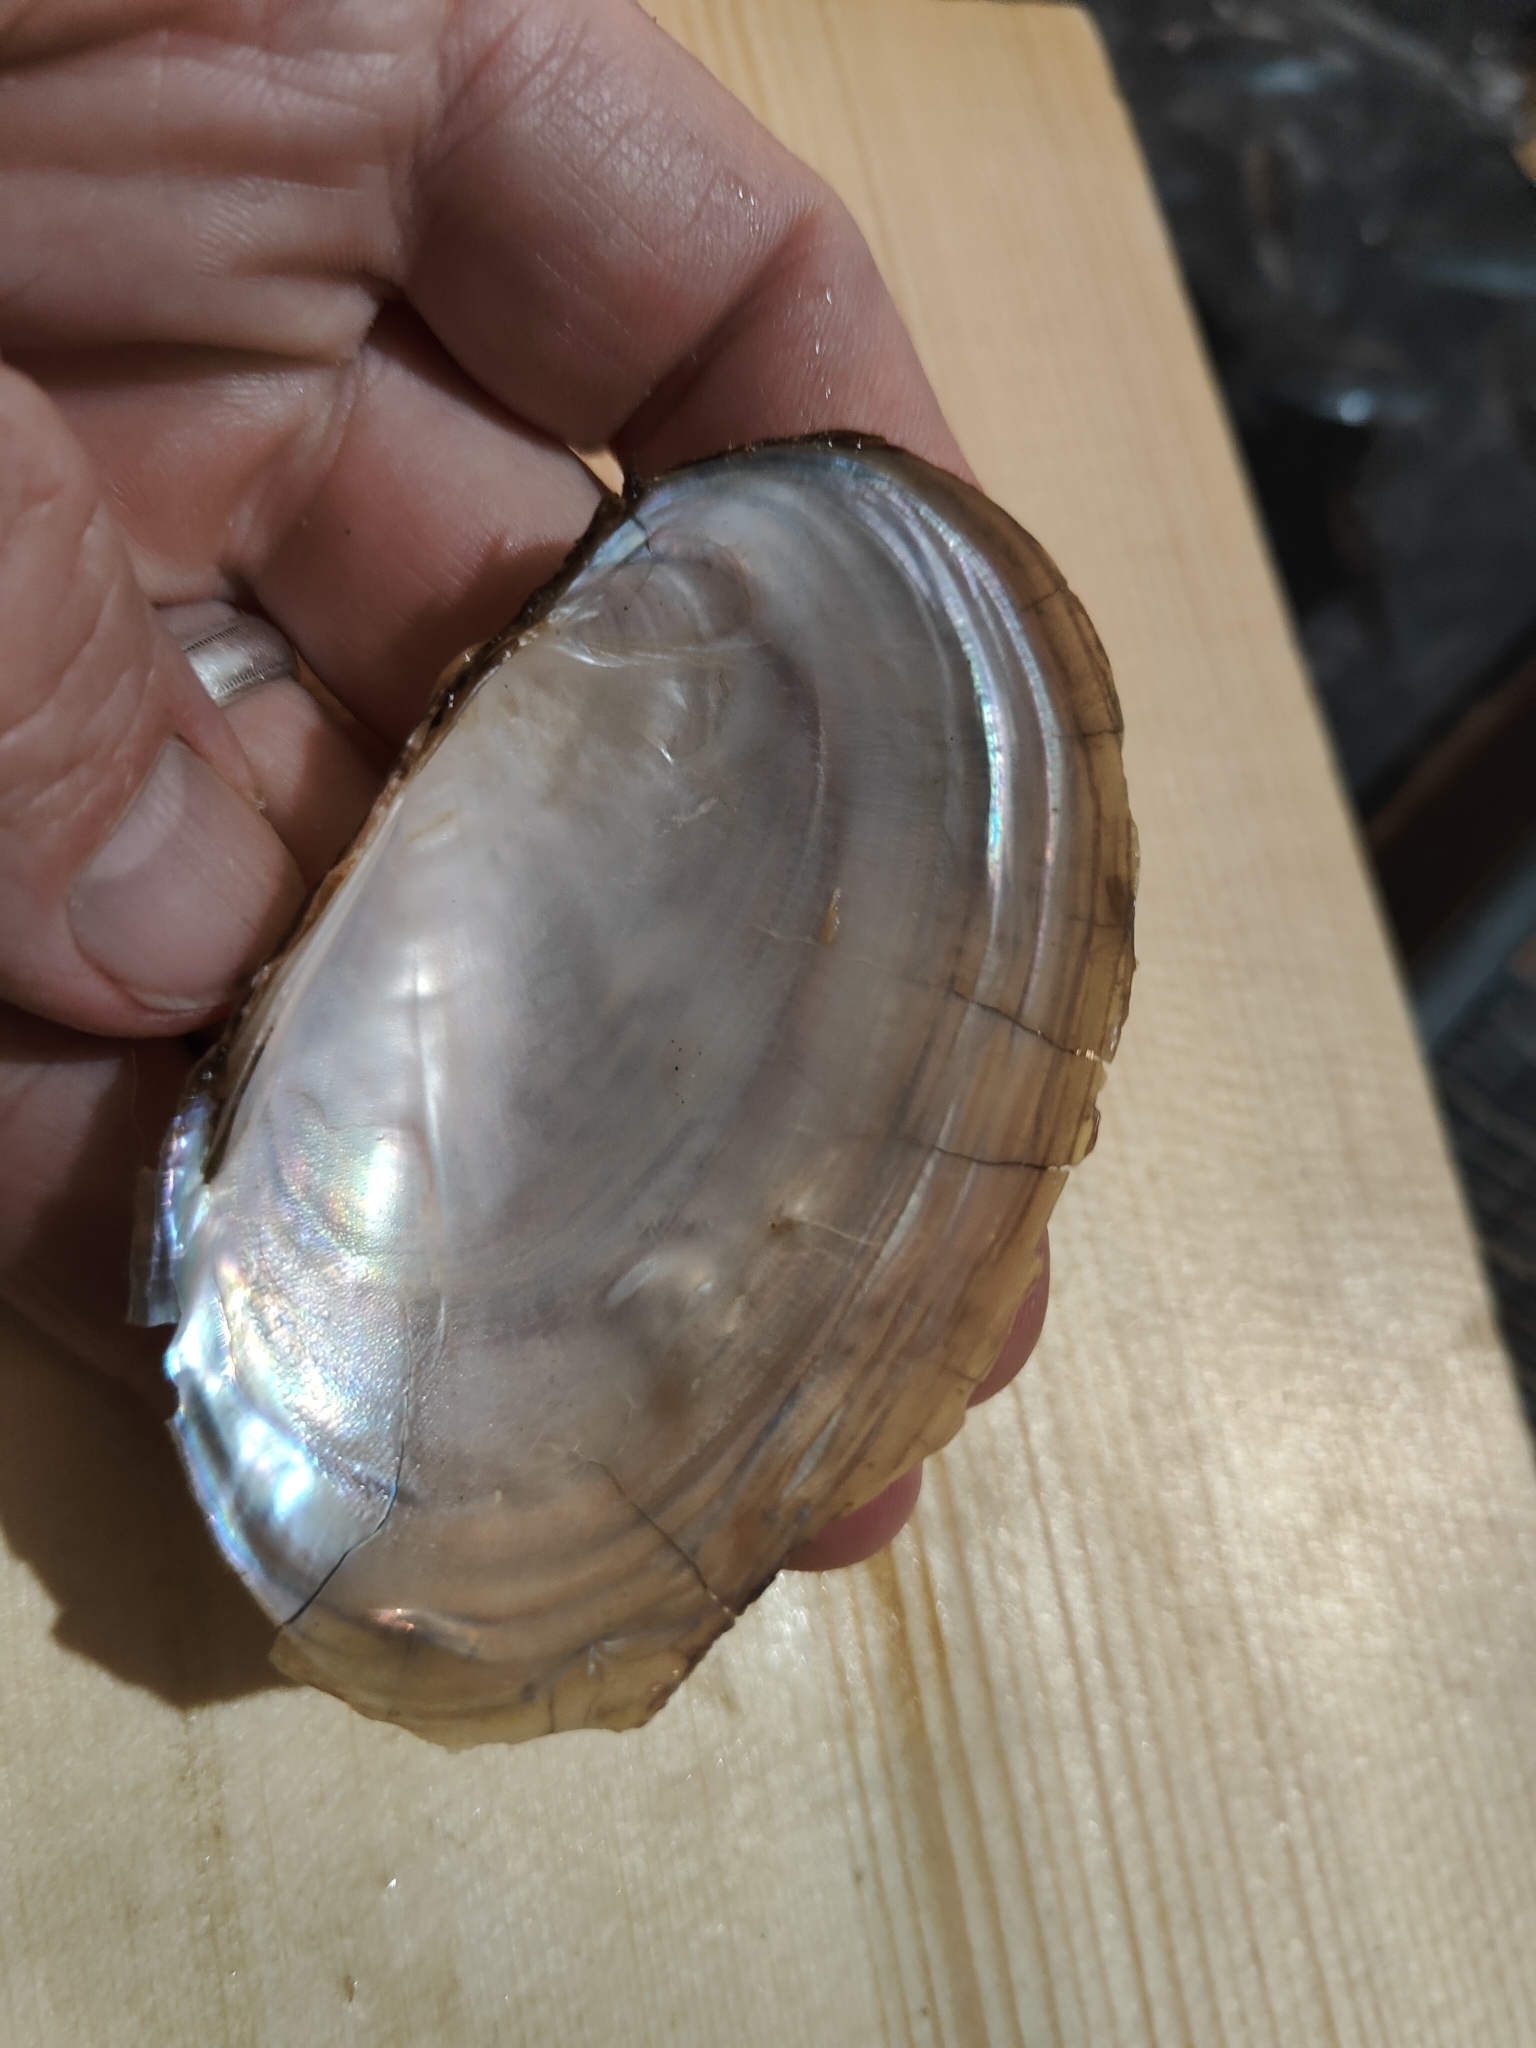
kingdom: Animalia
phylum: Mollusca
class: Bivalvia
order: Unionida
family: Unionidae
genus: Potamilus
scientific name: Potamilus fragilis
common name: Fragile papershell
